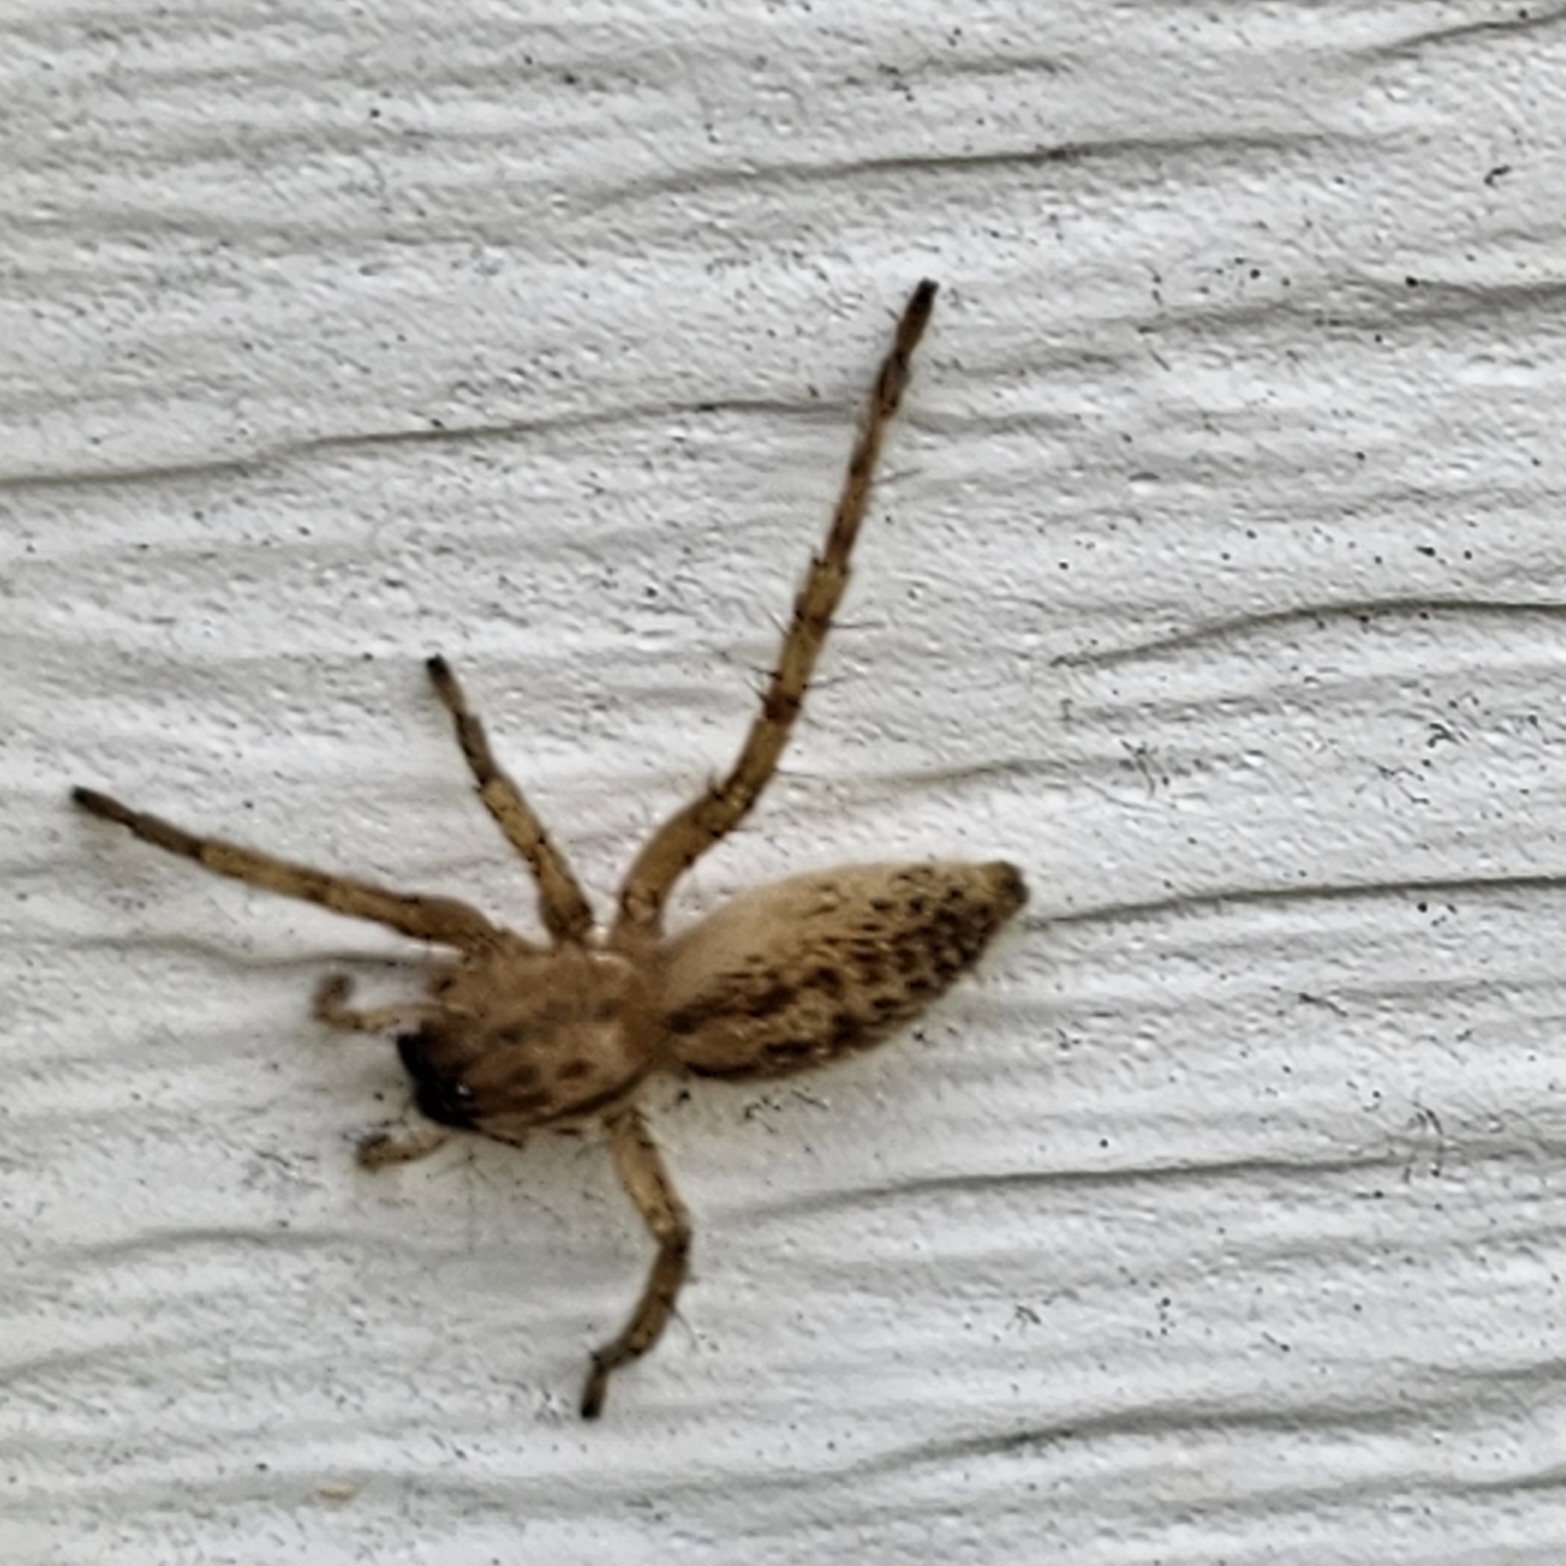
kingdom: Animalia
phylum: Arthropoda
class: Arachnida
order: Araneae
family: Anyphaenidae
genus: Hibana
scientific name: Hibana gracilis
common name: Garden ghost spider
